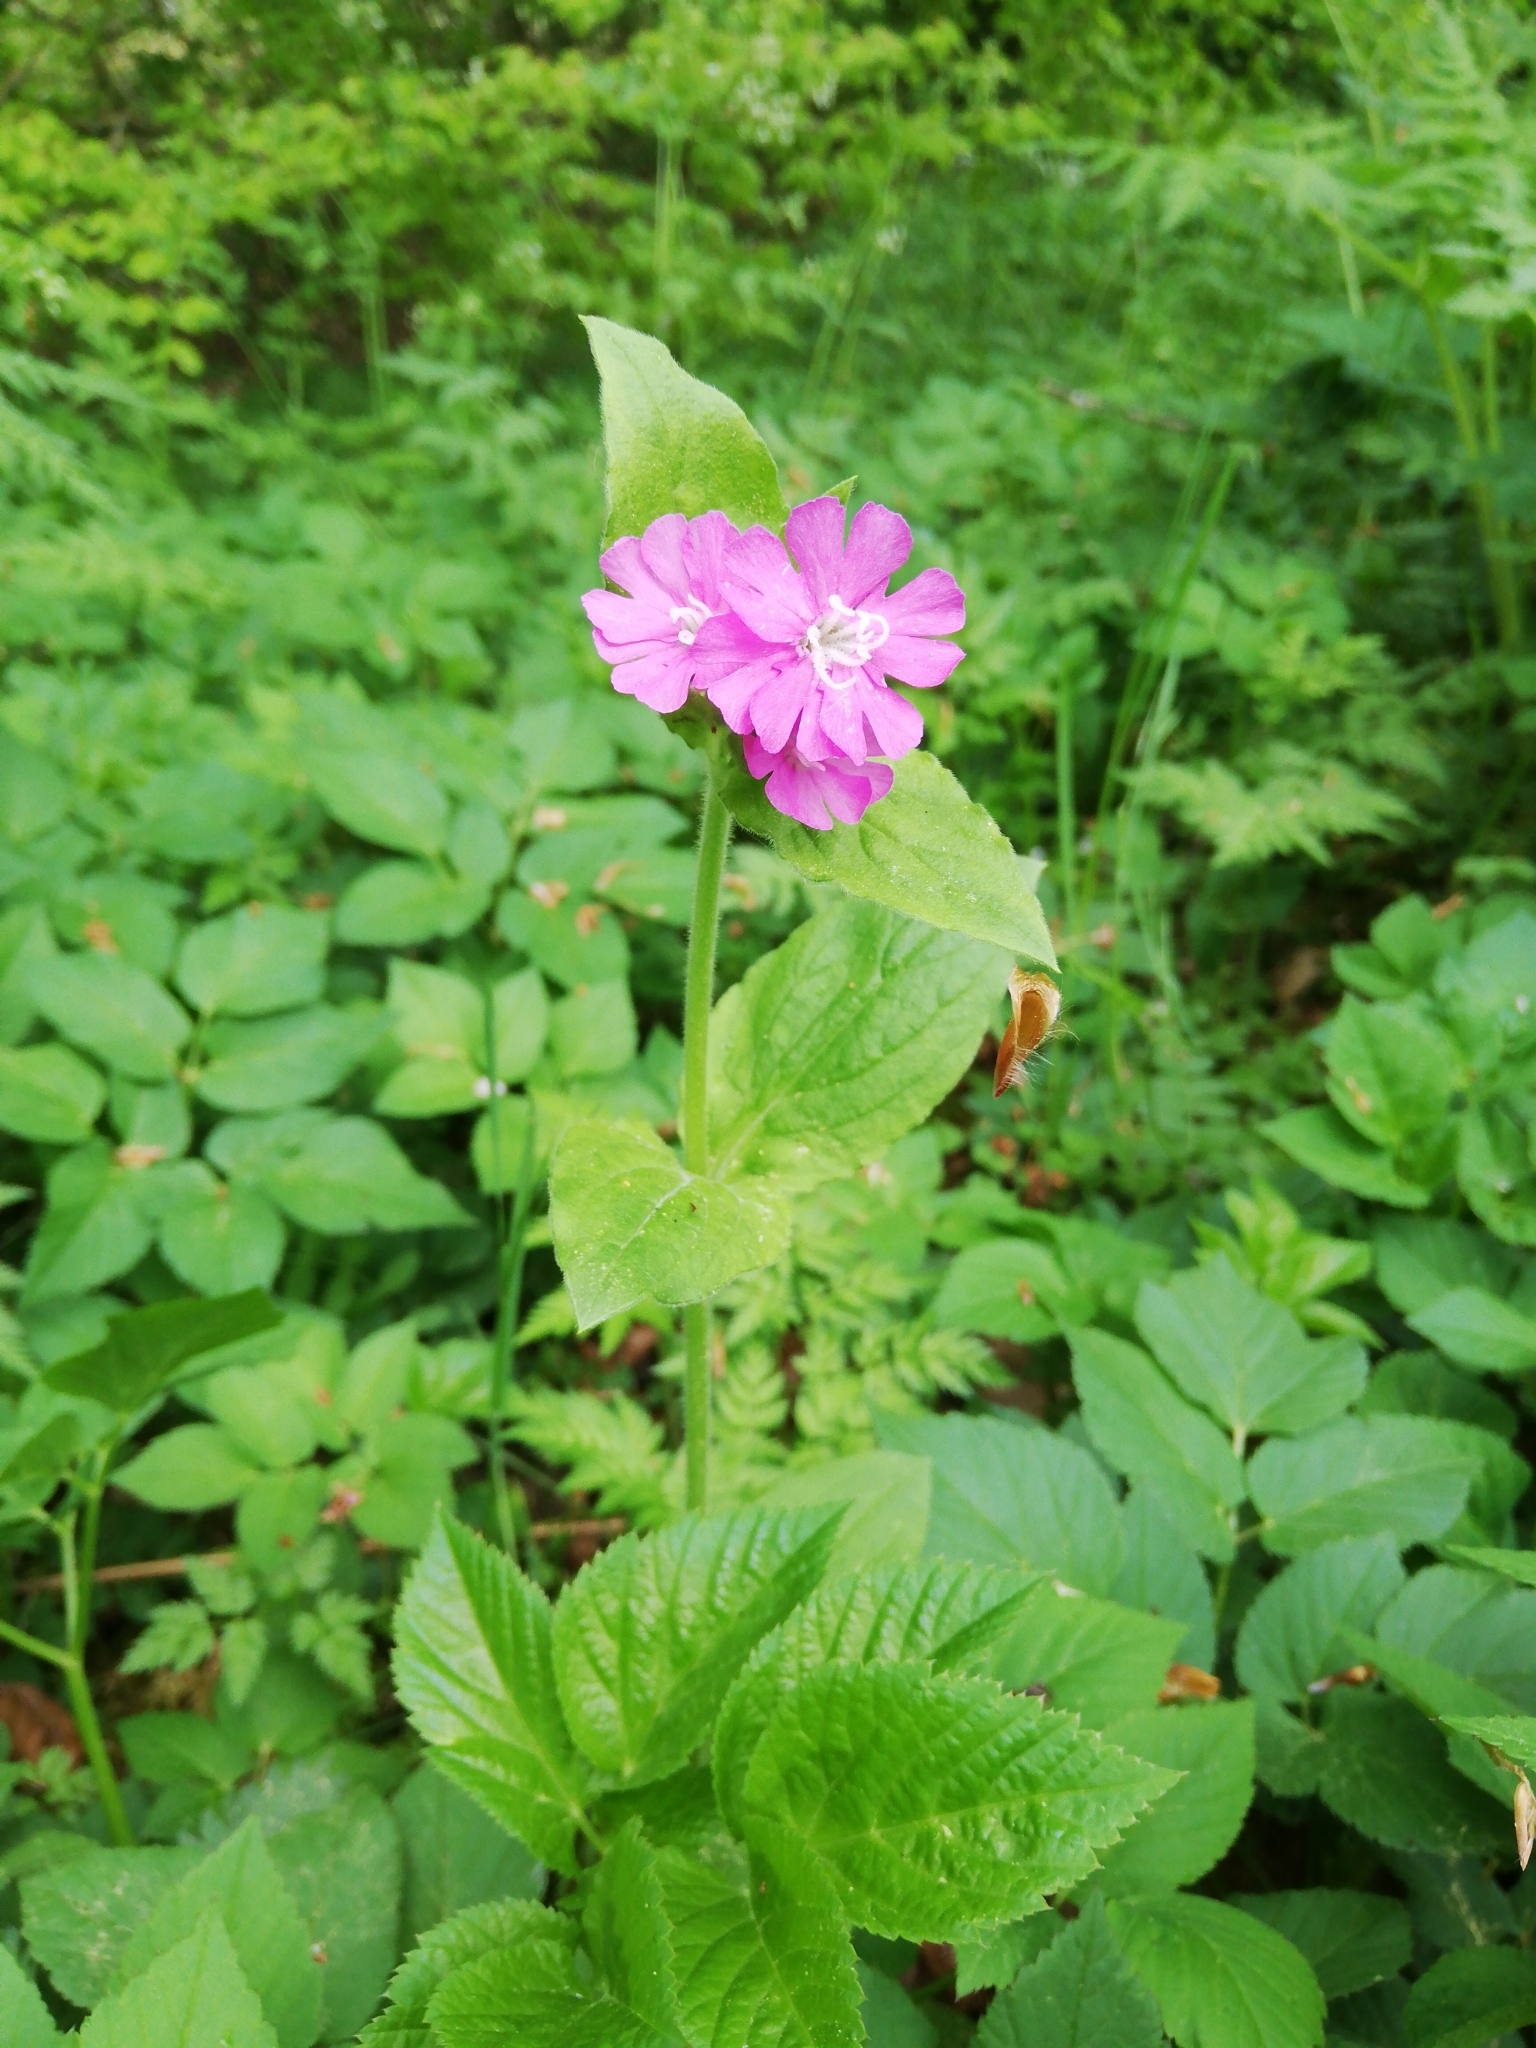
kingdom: Plantae
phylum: Tracheophyta
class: Magnoliopsida
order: Caryophyllales
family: Caryophyllaceae
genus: Silene
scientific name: Silene dioica
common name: Red campion
